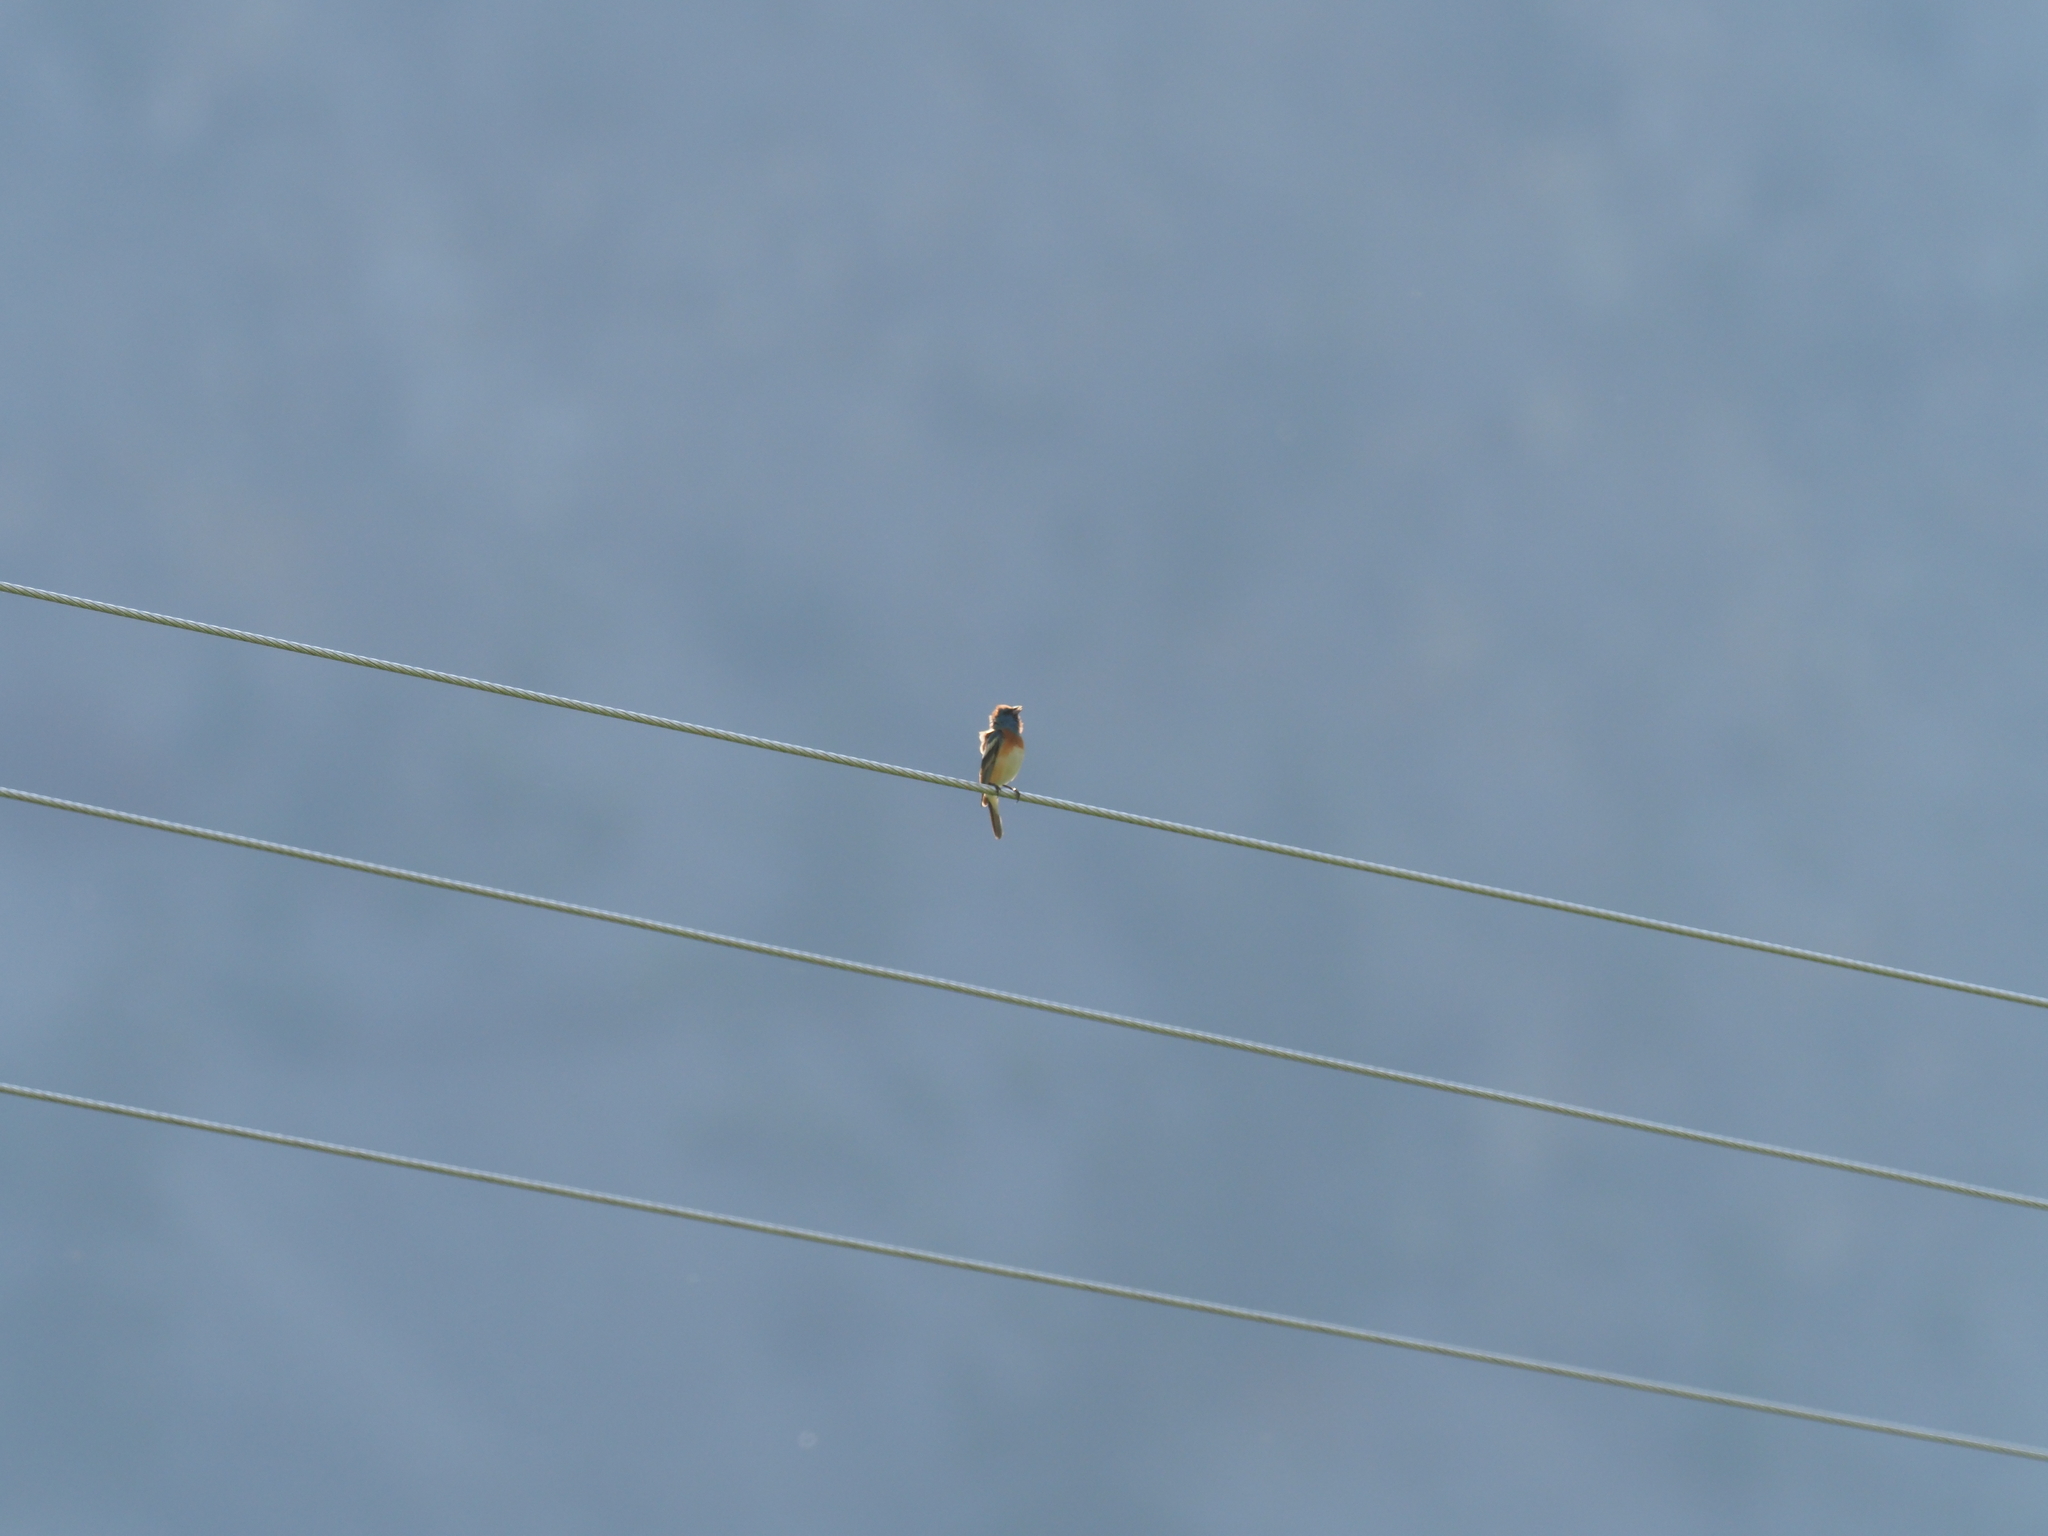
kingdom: Animalia
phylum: Chordata
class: Aves
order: Passeriformes
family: Cardinalidae
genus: Passerina
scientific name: Passerina amoena
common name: Lazuli bunting
